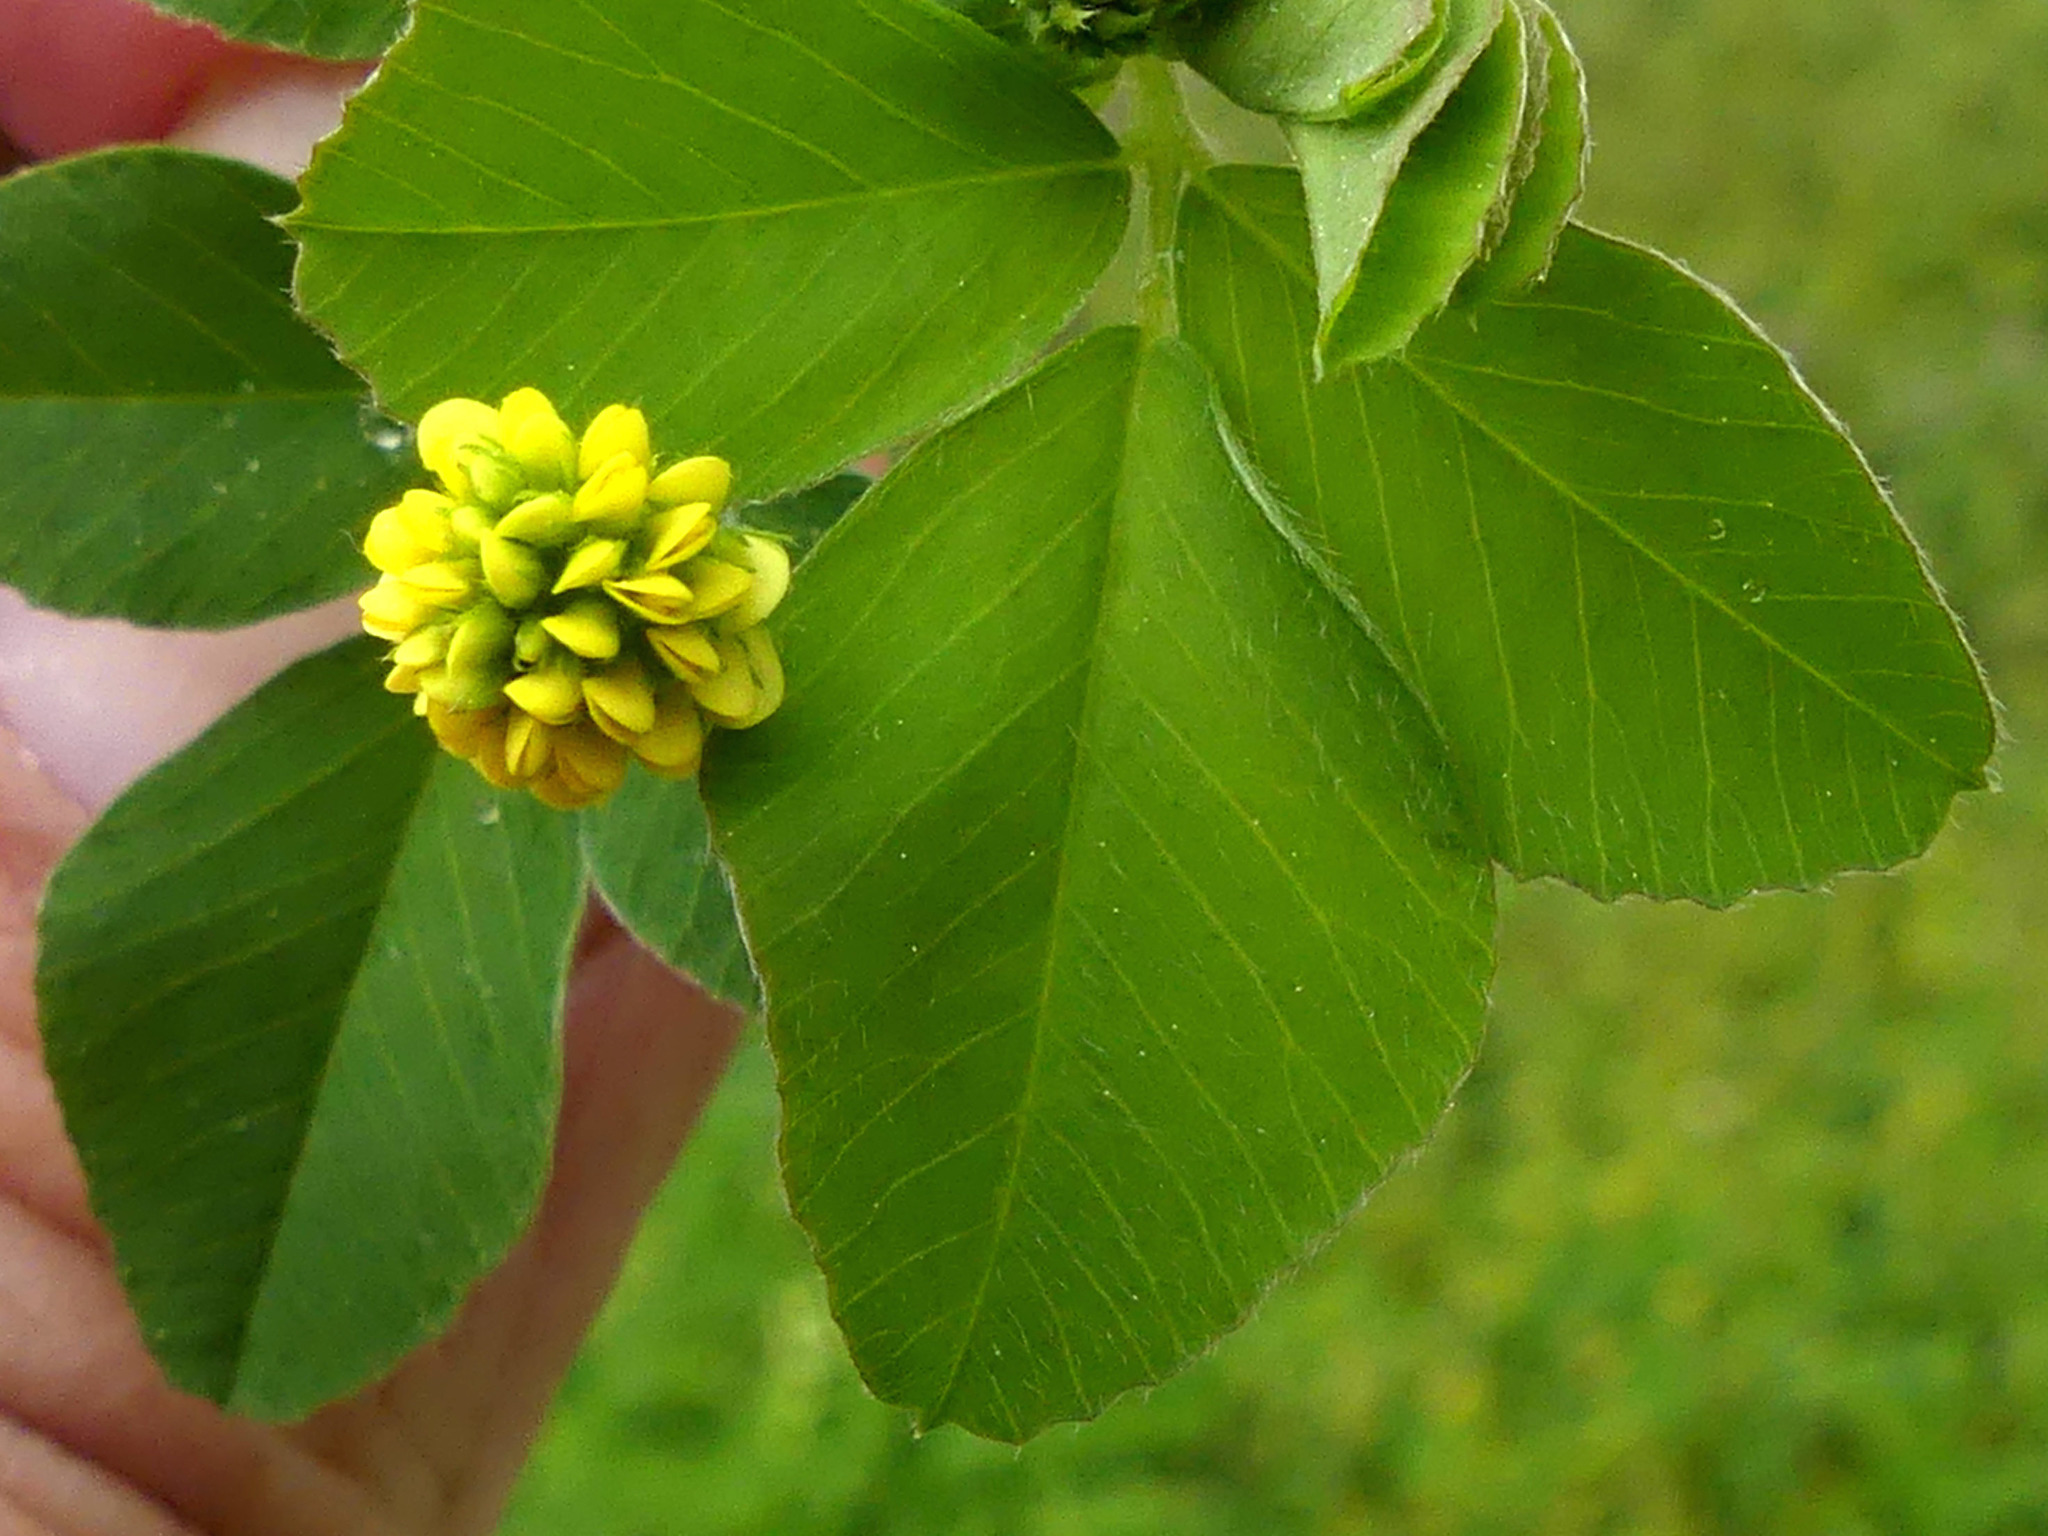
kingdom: Plantae
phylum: Tracheophyta
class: Magnoliopsida
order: Fabales
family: Fabaceae
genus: Medicago
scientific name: Medicago lupulina
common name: Black medick
